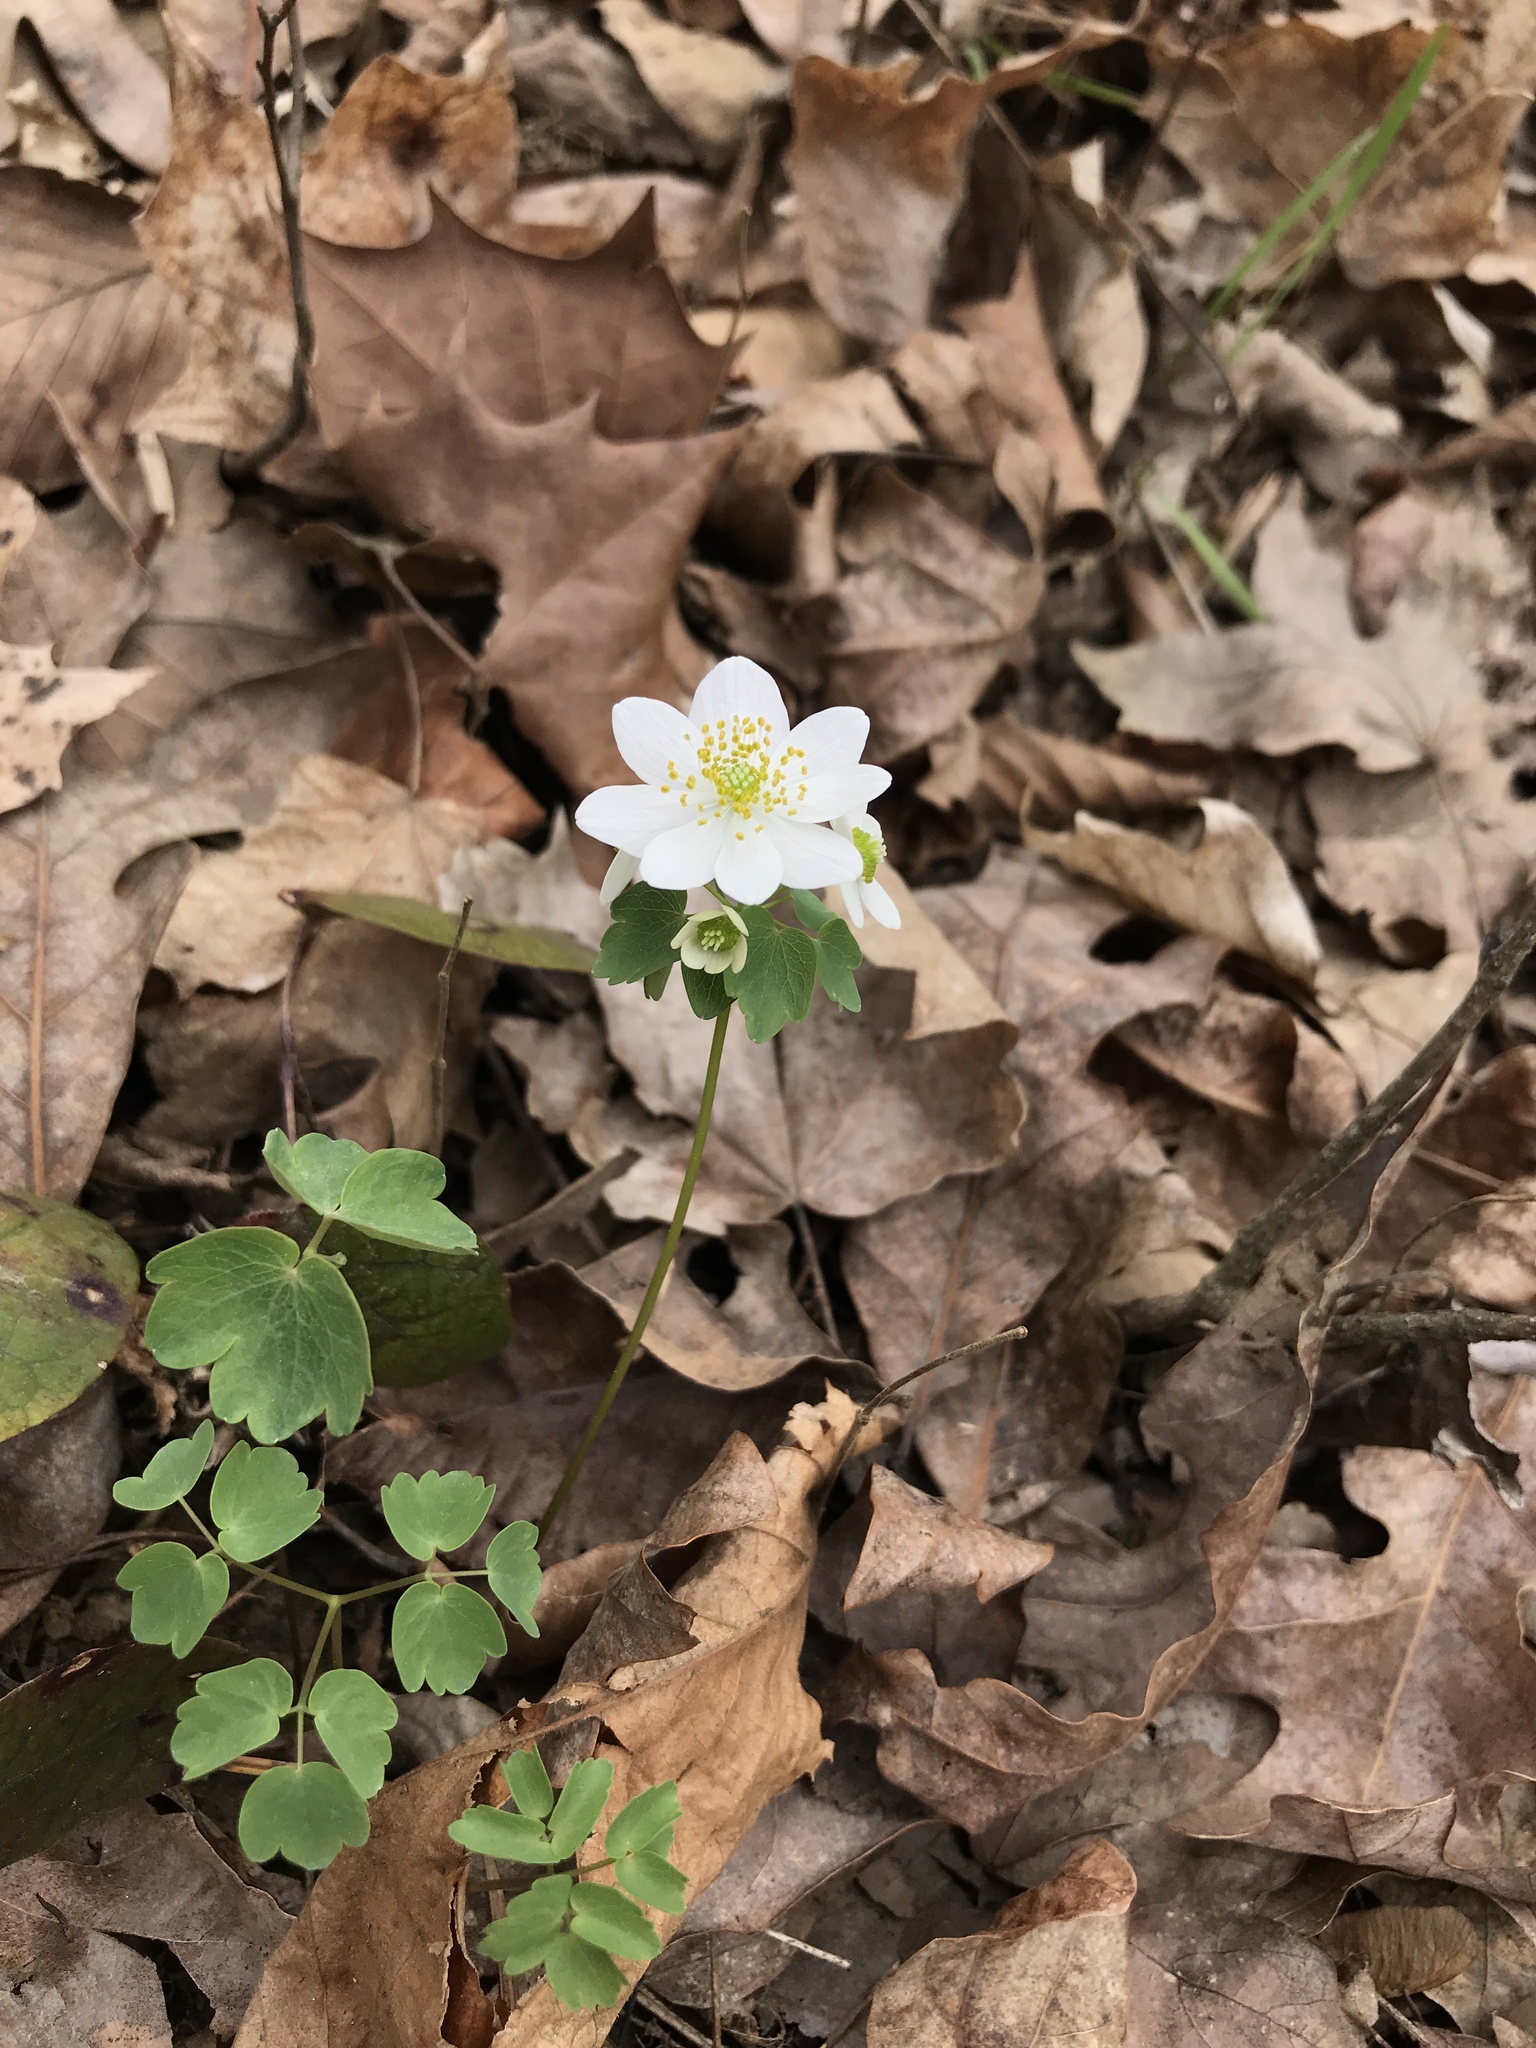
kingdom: Plantae
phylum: Tracheophyta
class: Magnoliopsida
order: Ranunculales
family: Ranunculaceae
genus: Thalictrum
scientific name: Thalictrum thalictroides
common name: Rue-anemone
